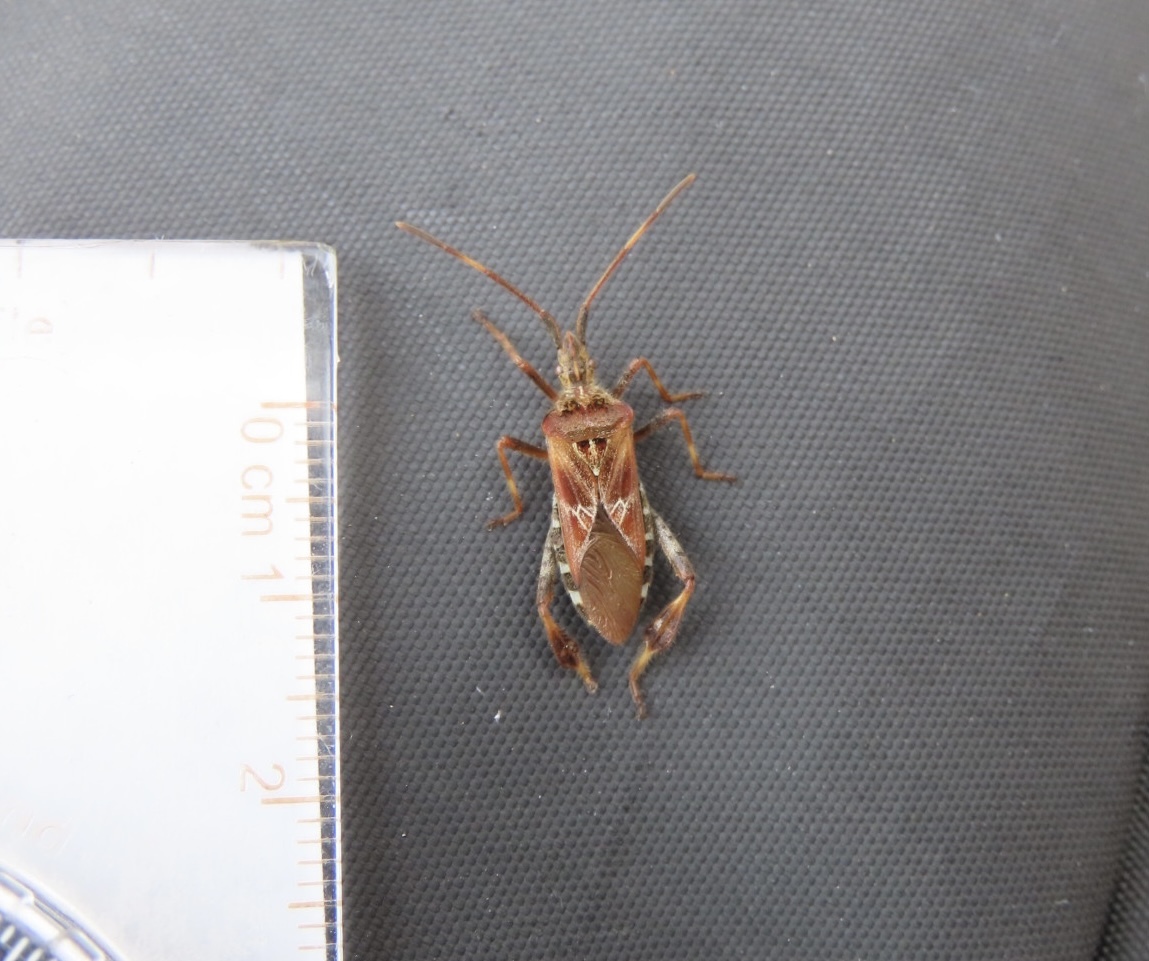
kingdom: Animalia
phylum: Arthropoda
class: Insecta
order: Hemiptera
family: Coreidae
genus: Leptoglossus
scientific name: Leptoglossus occidentalis
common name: Western conifer-seed bug
